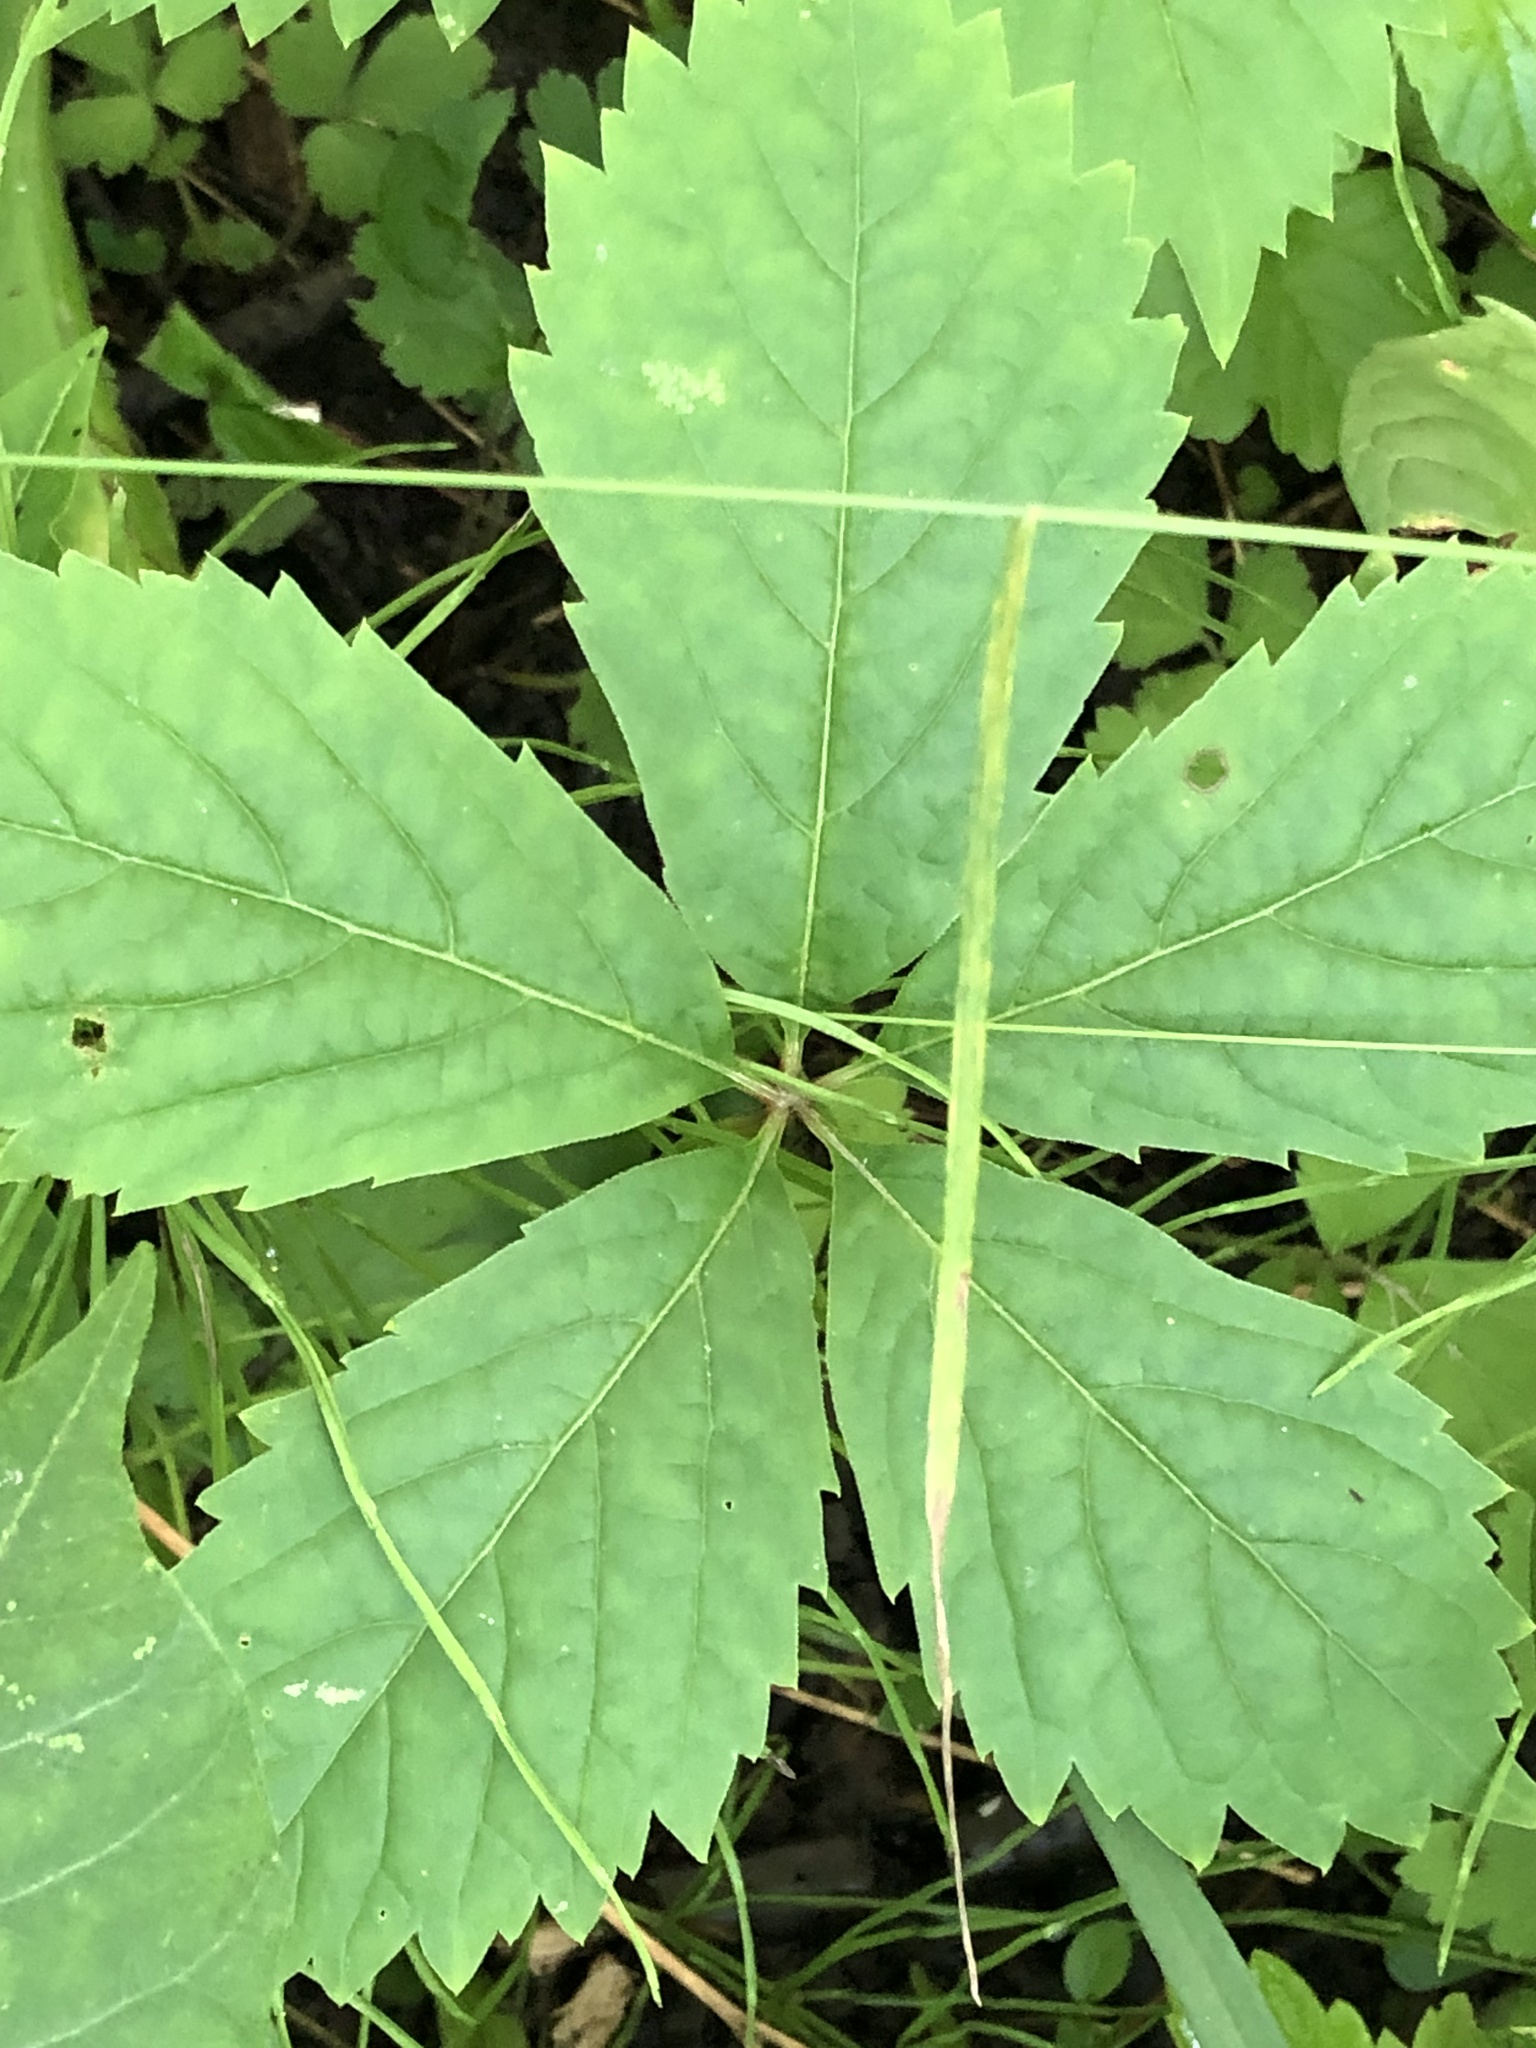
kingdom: Plantae
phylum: Tracheophyta
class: Magnoliopsida
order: Vitales
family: Vitaceae
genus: Parthenocissus
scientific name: Parthenocissus quinquefolia
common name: Virginia-creeper
